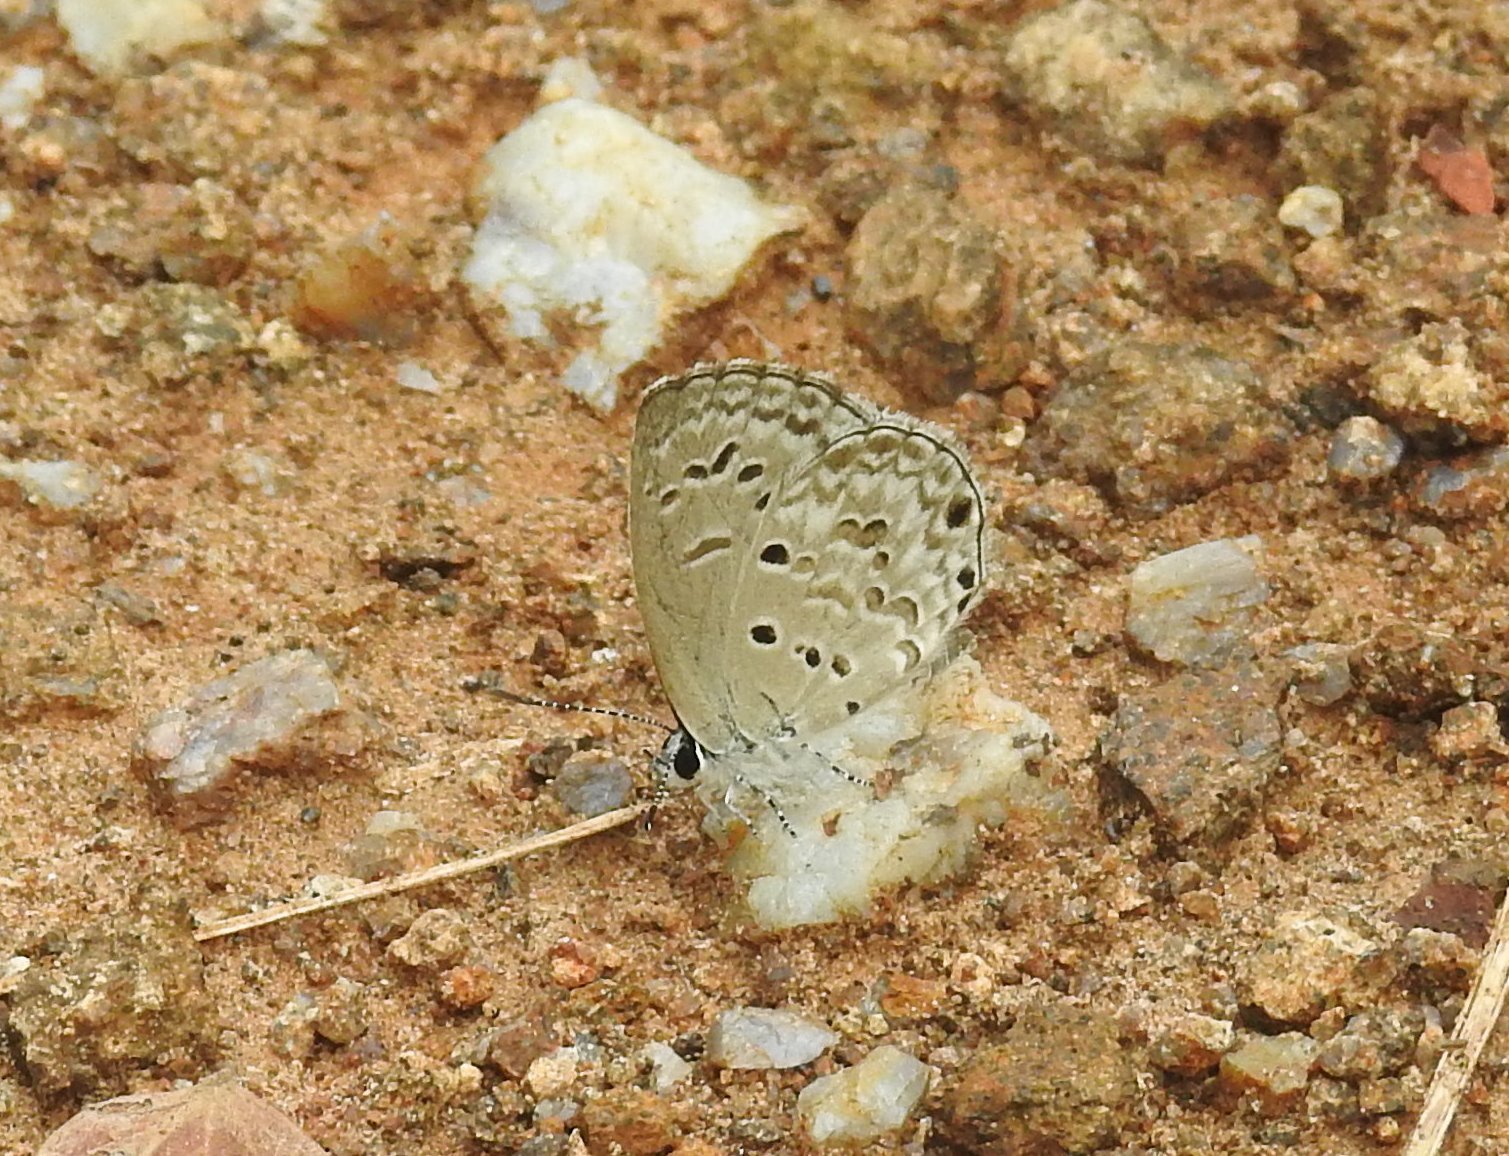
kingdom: Animalia
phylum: Arthropoda
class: Insecta
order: Lepidoptera
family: Lycaenidae
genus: Chilades
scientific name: Chilades laius
